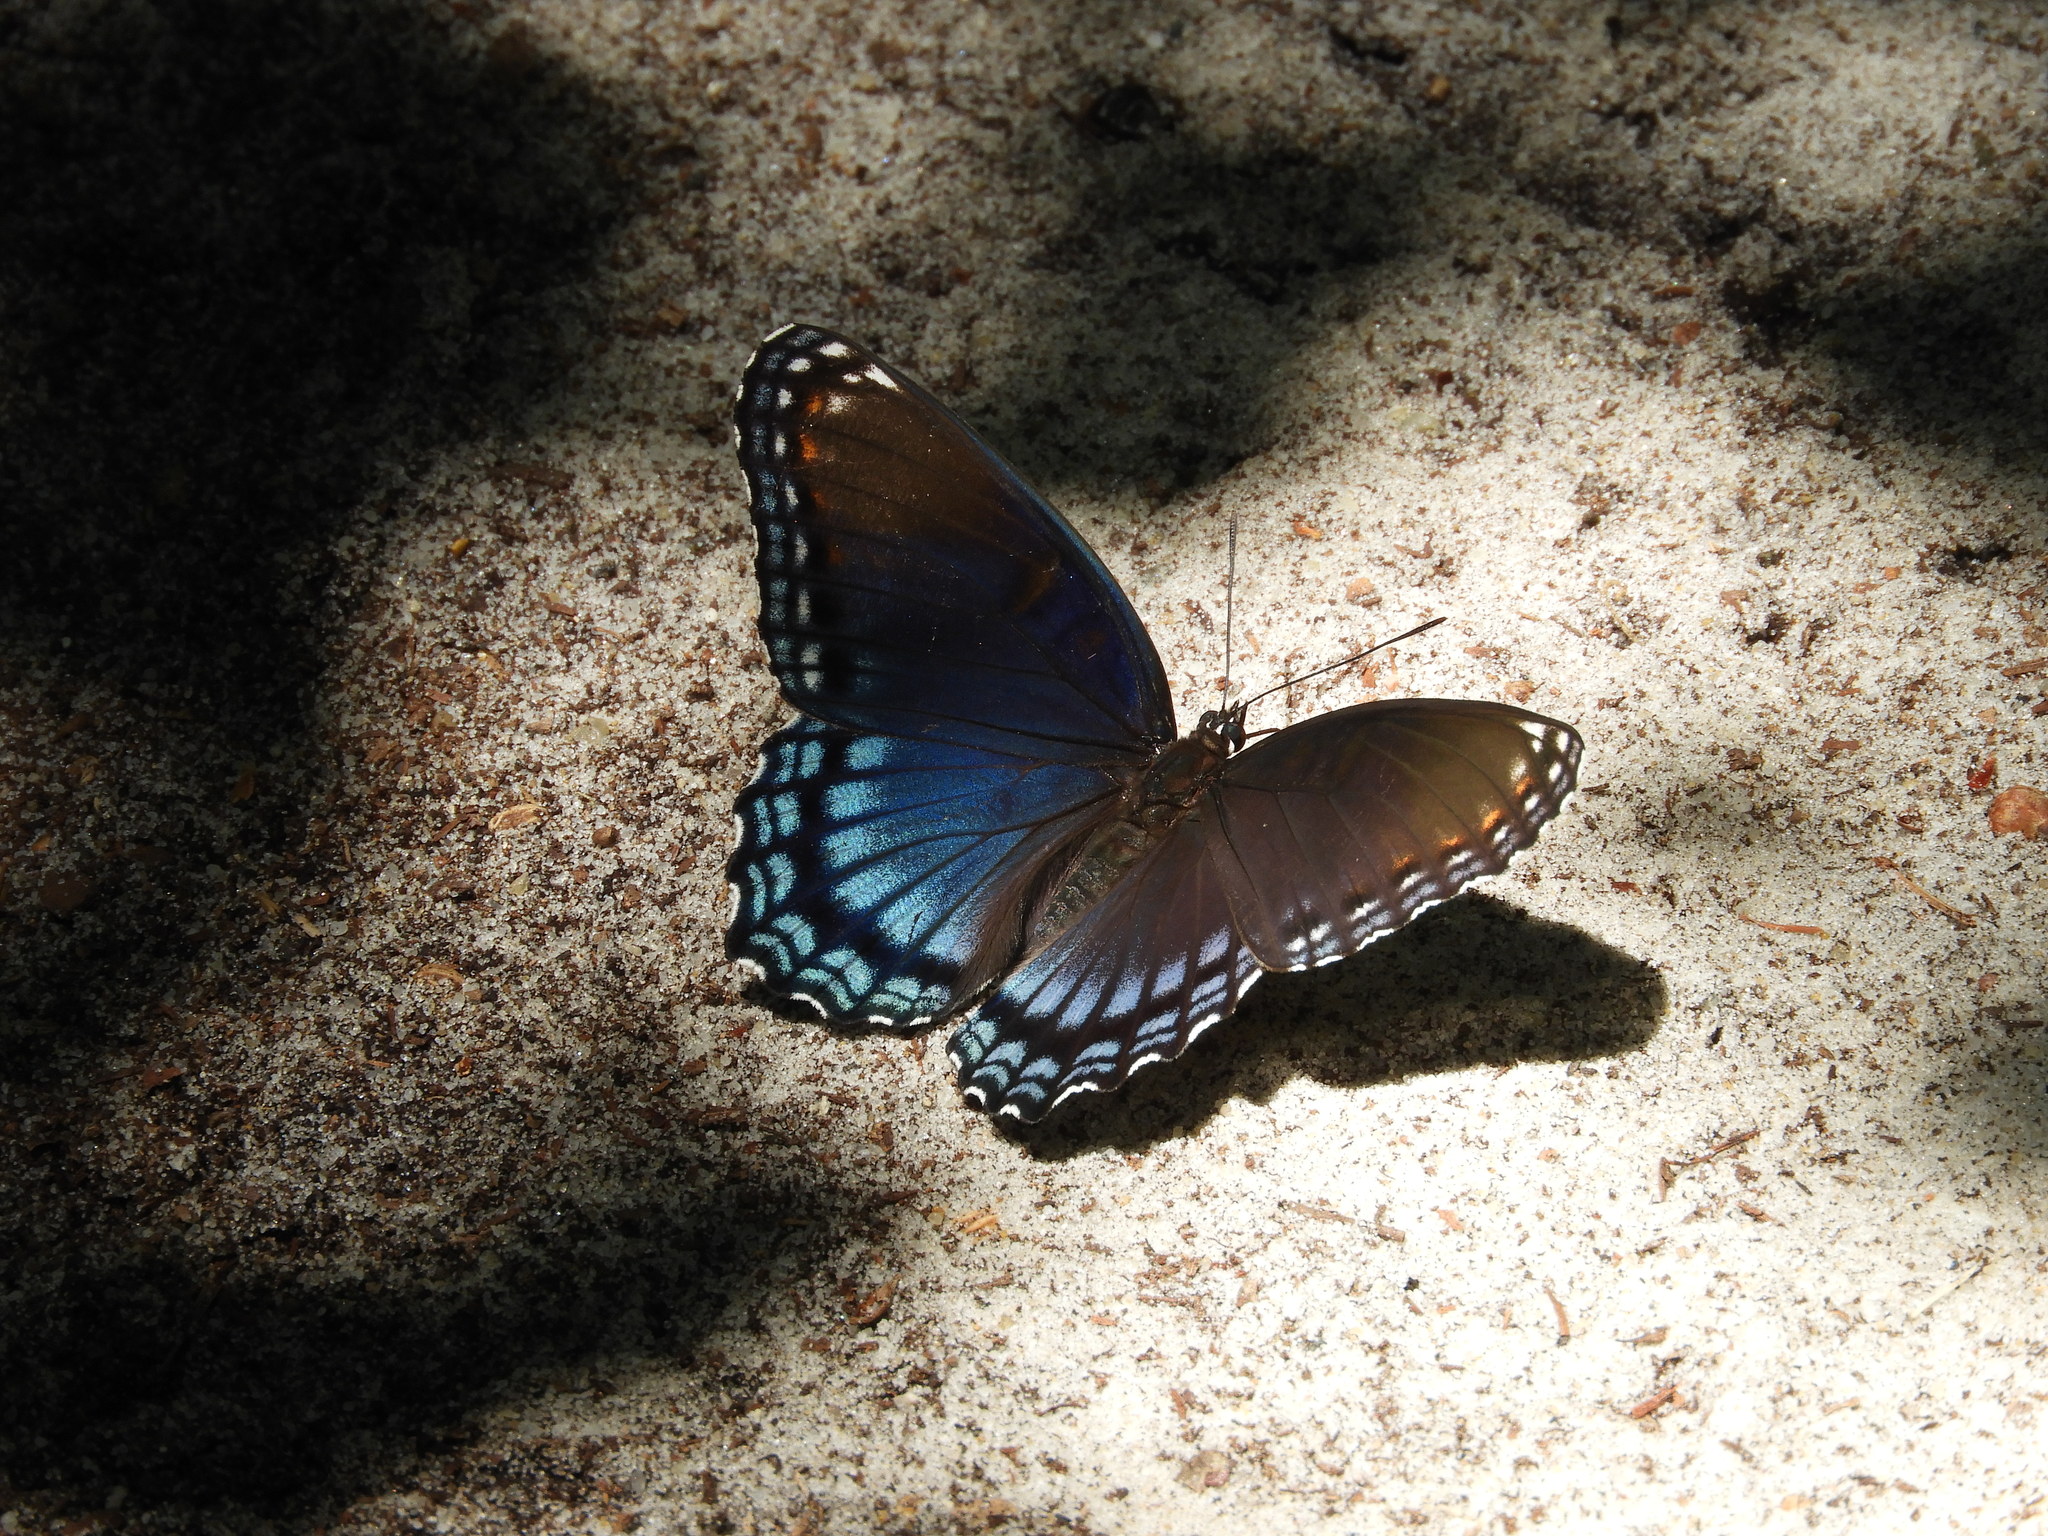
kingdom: Animalia
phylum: Arthropoda
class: Insecta
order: Lepidoptera
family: Nymphalidae
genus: Limenitis
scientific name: Limenitis astyanax
